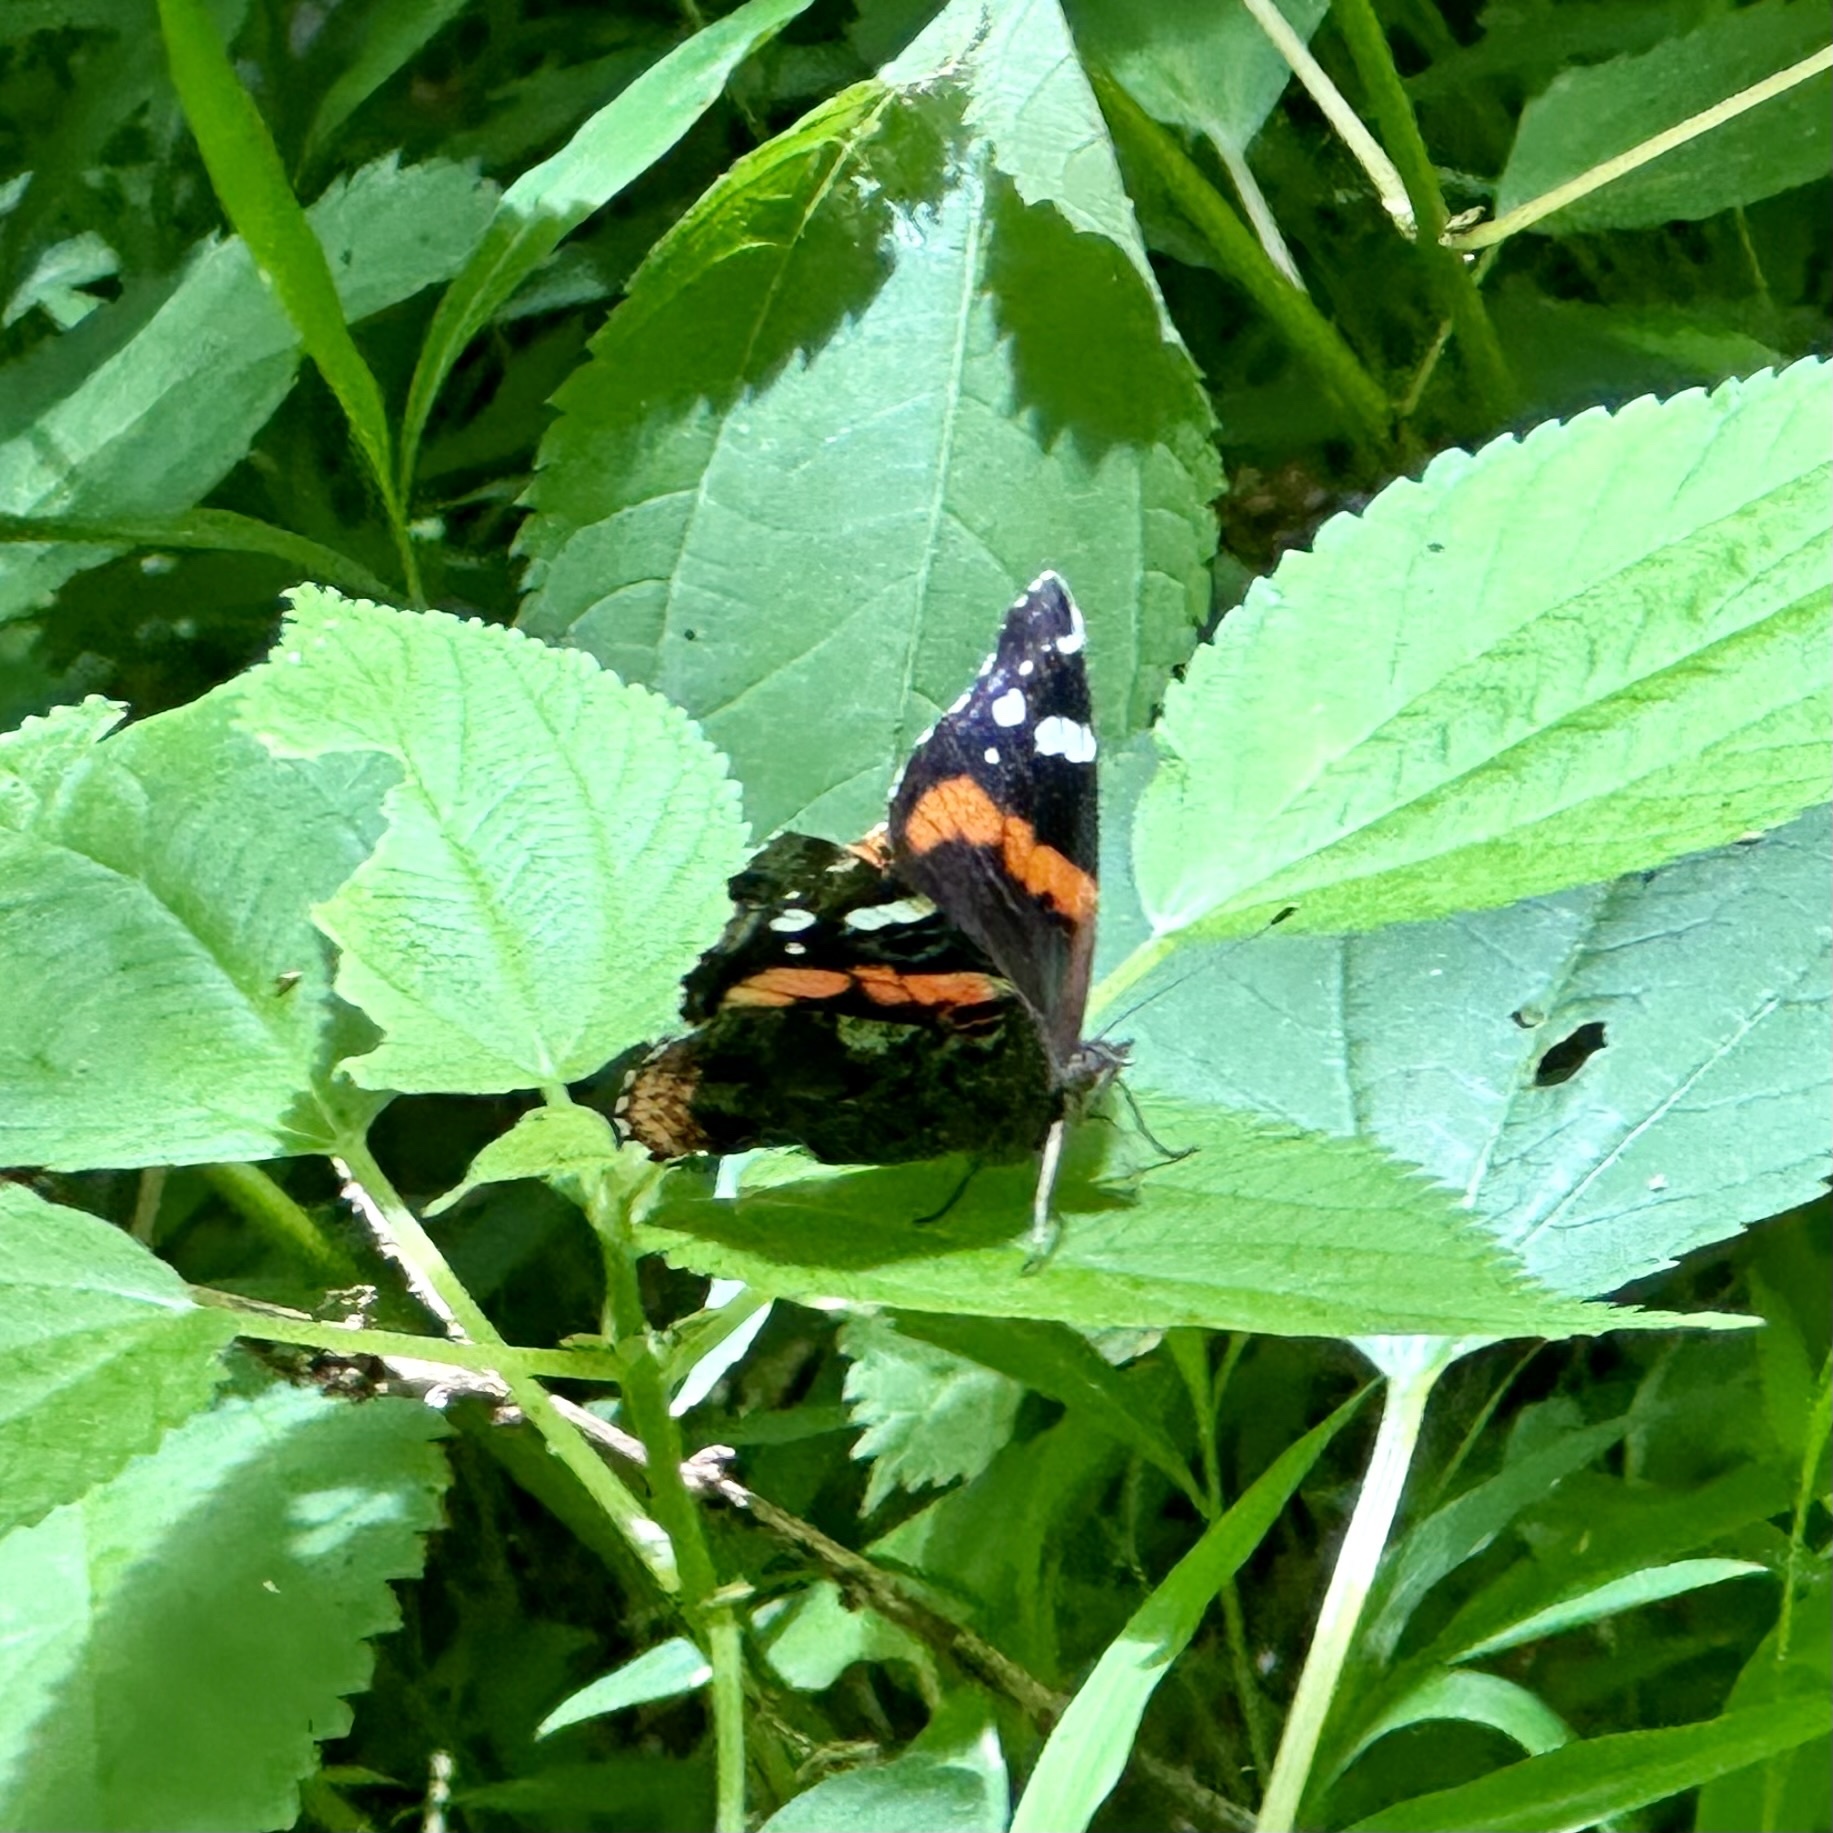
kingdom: Animalia
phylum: Arthropoda
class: Insecta
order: Lepidoptera
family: Nymphalidae
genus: Vanessa
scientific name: Vanessa atalanta
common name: Red admiral
